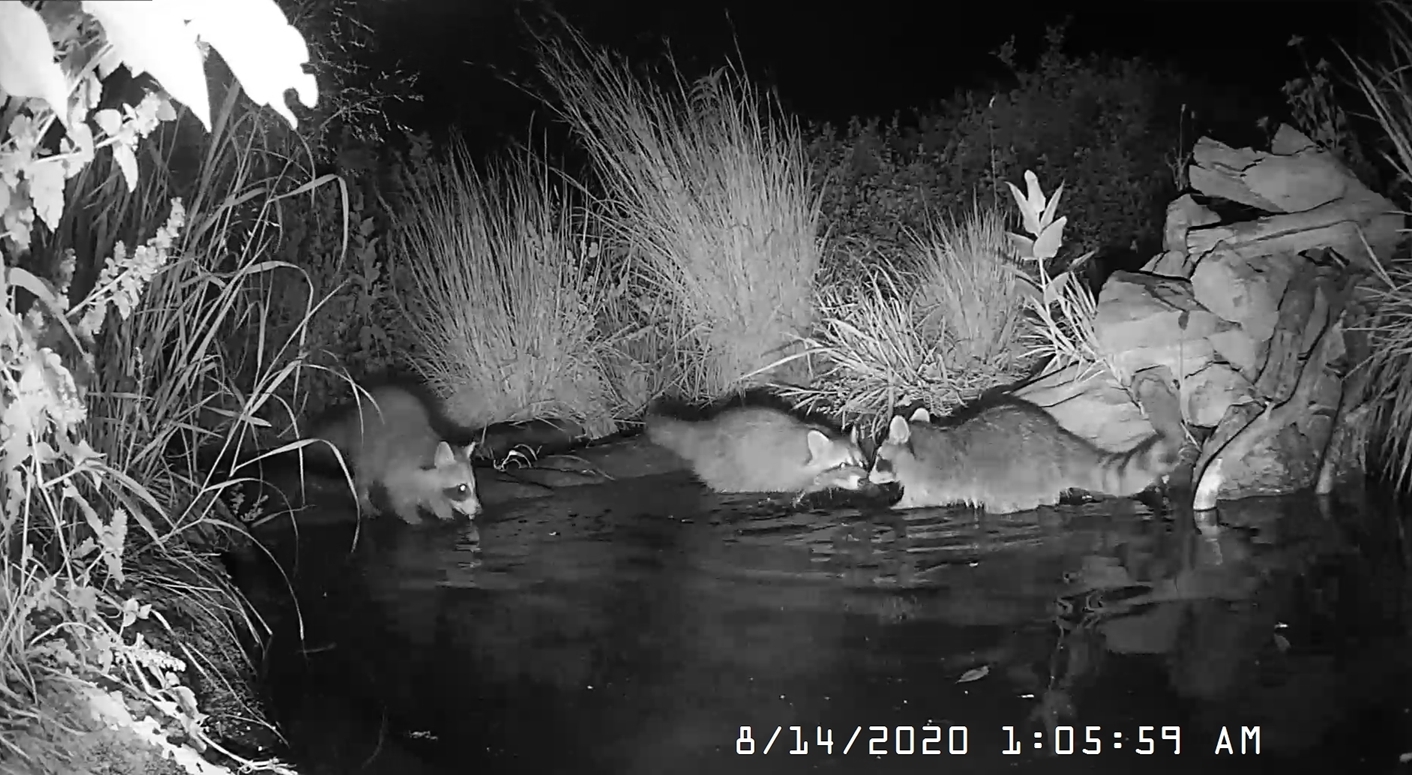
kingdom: Animalia
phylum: Chordata
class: Mammalia
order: Carnivora
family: Procyonidae
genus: Procyon
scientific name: Procyon lotor
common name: Raccoon
